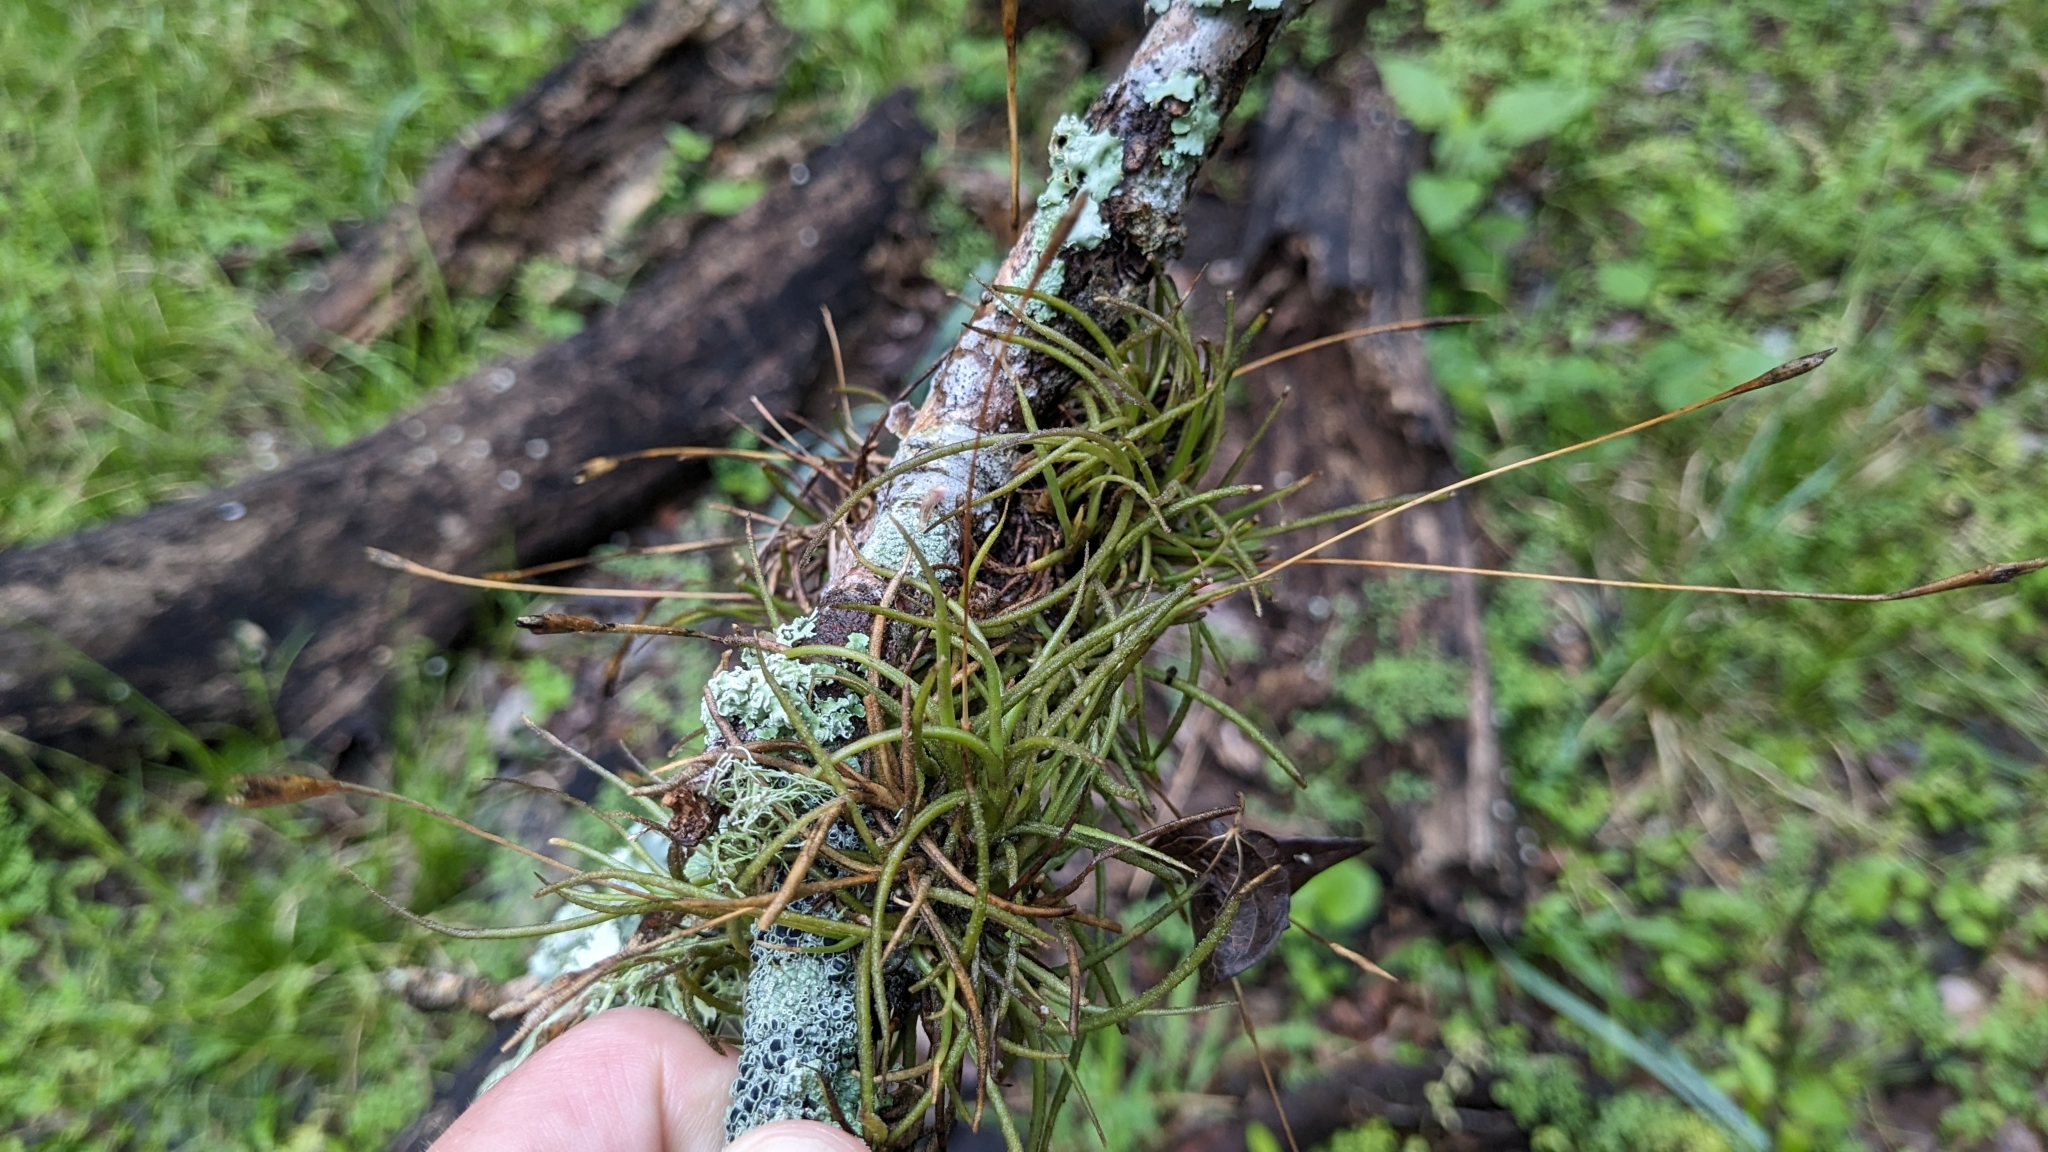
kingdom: Plantae
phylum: Tracheophyta
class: Liliopsida
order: Poales
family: Bromeliaceae
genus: Tillandsia
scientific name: Tillandsia recurvata
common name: Small ballmoss
